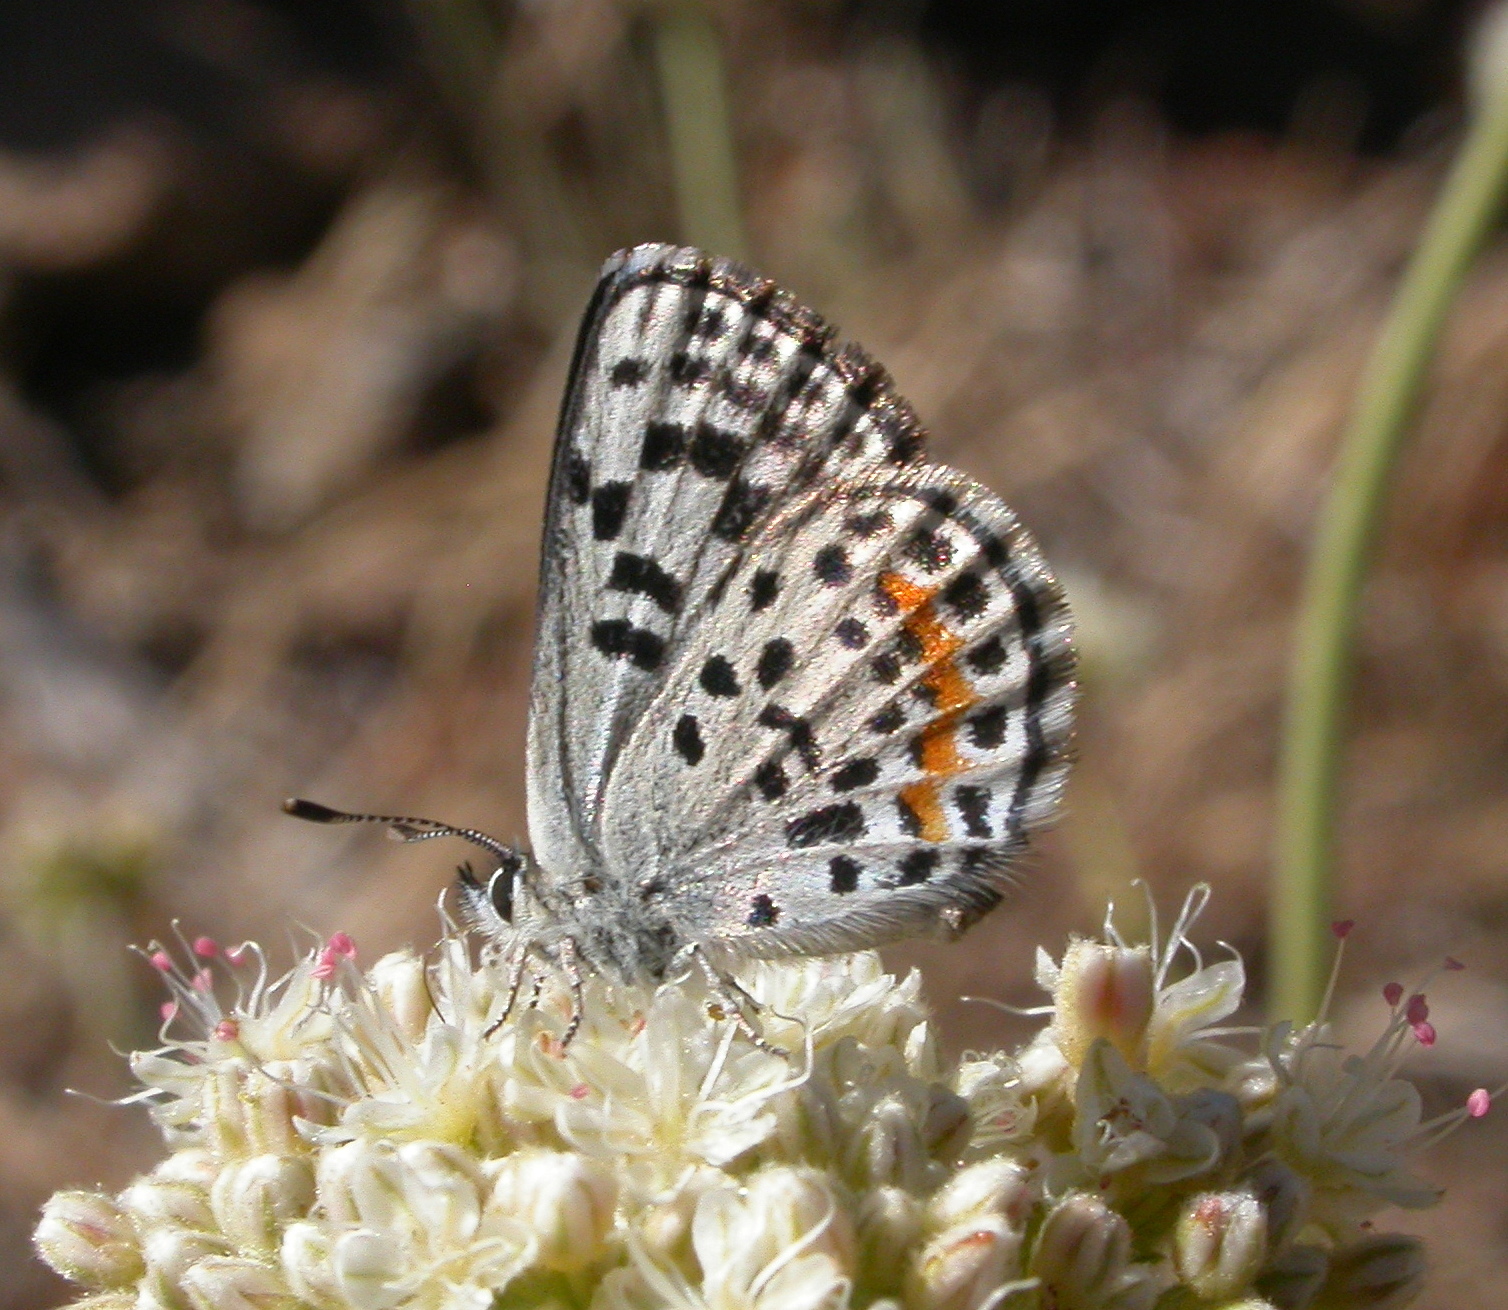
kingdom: Animalia
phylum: Arthropoda
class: Insecta
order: Lepidoptera
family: Lycaenidae
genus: Philotes
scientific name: Philotes bernardino
